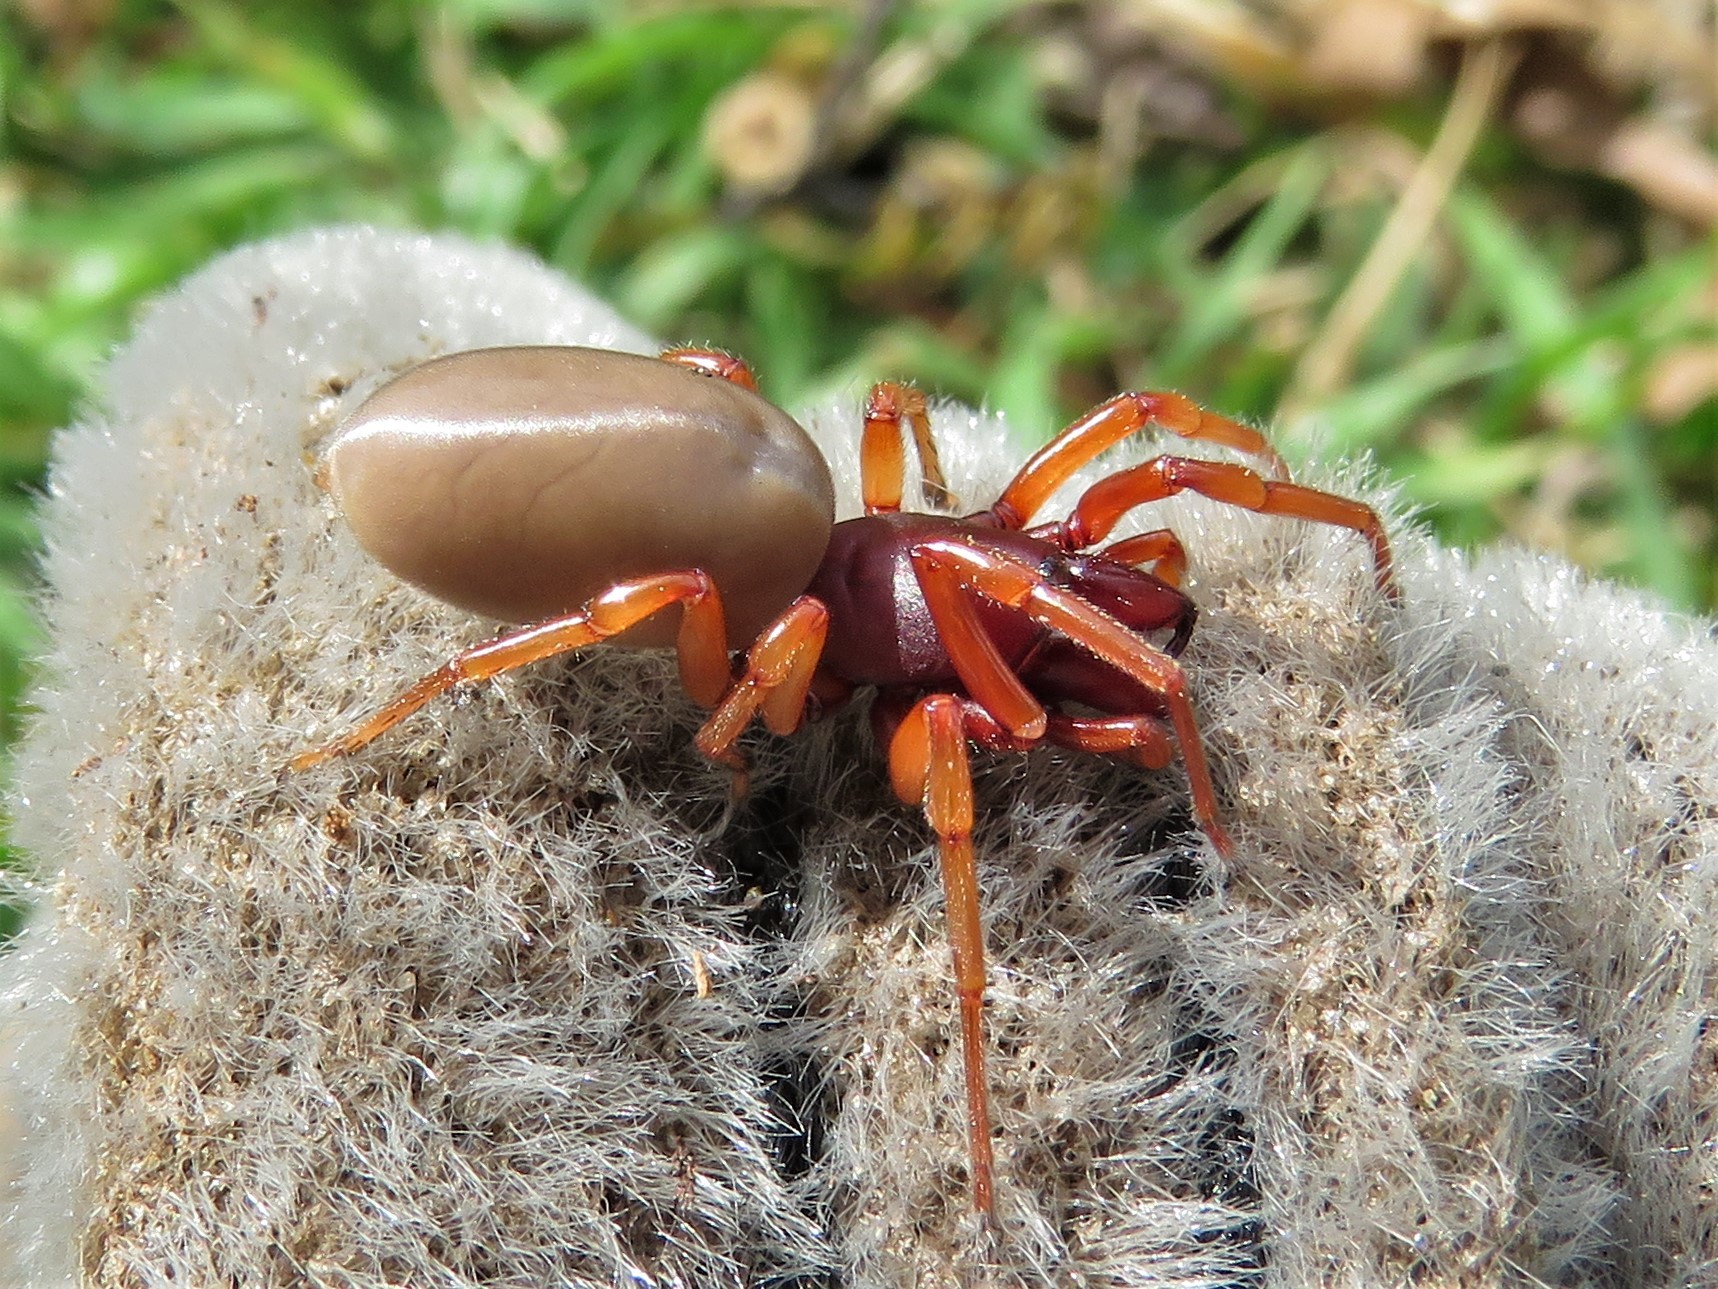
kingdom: Animalia
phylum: Arthropoda
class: Arachnida
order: Araneae
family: Dysderidae
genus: Dysdera
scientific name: Dysdera crocata
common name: Woodlouse spider
